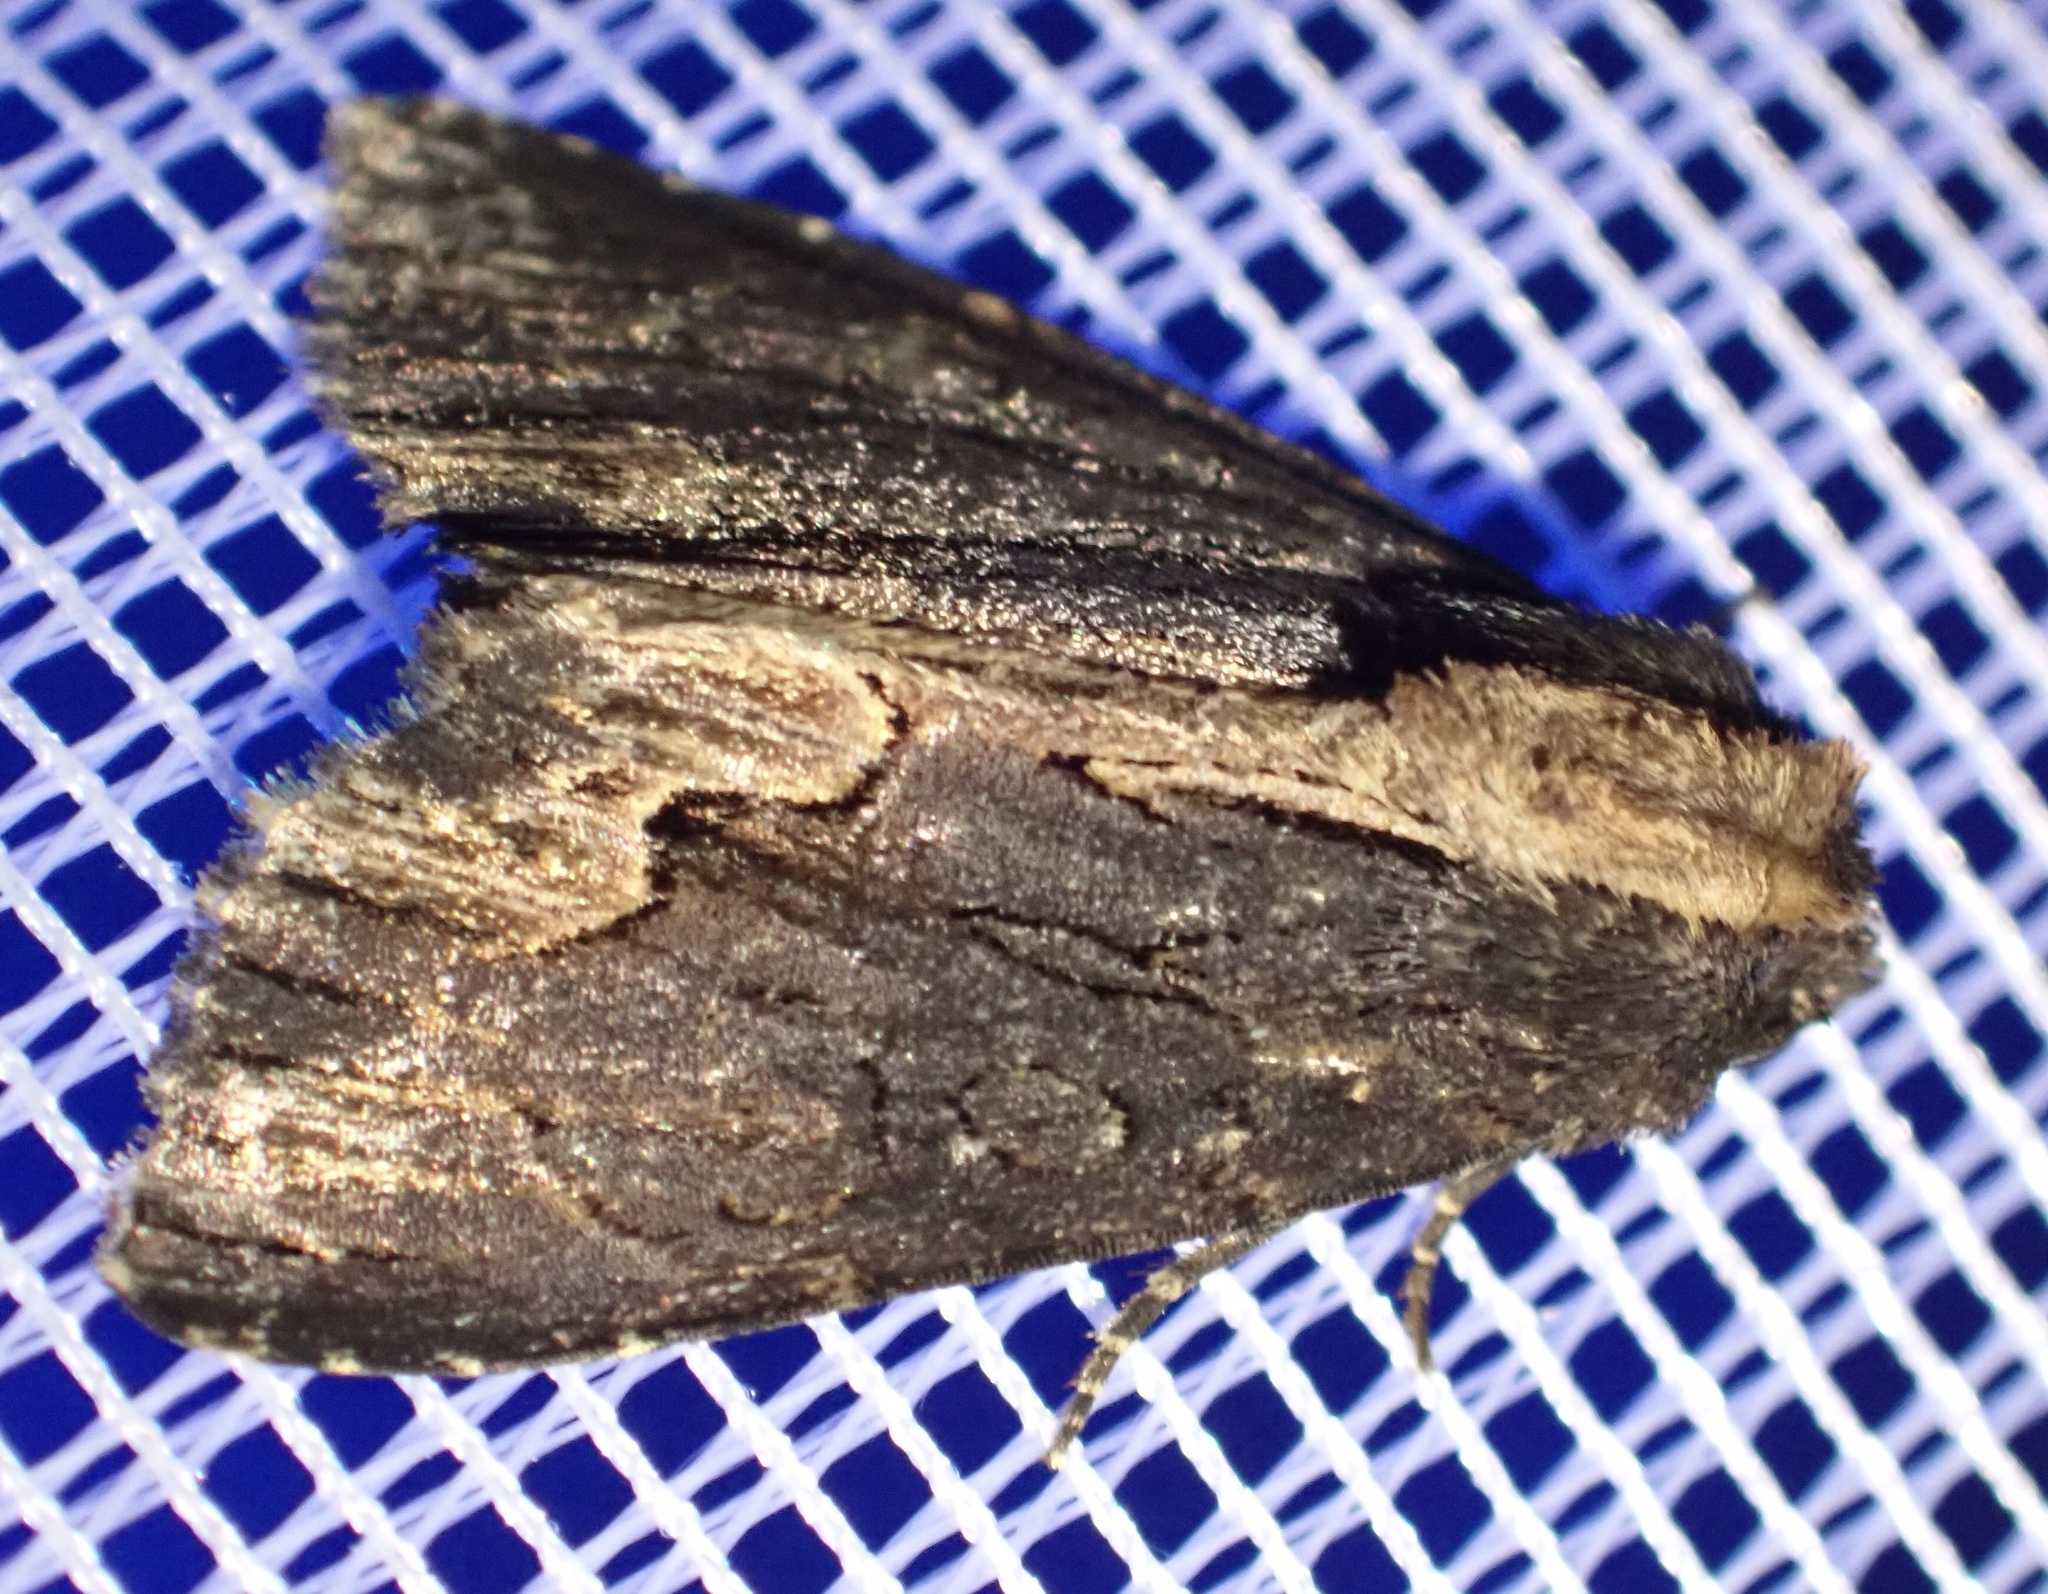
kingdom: Animalia
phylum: Arthropoda
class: Insecta
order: Lepidoptera
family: Noctuidae
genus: Dypterygia
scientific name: Dypterygia scabriuscula
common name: Bird's wing
